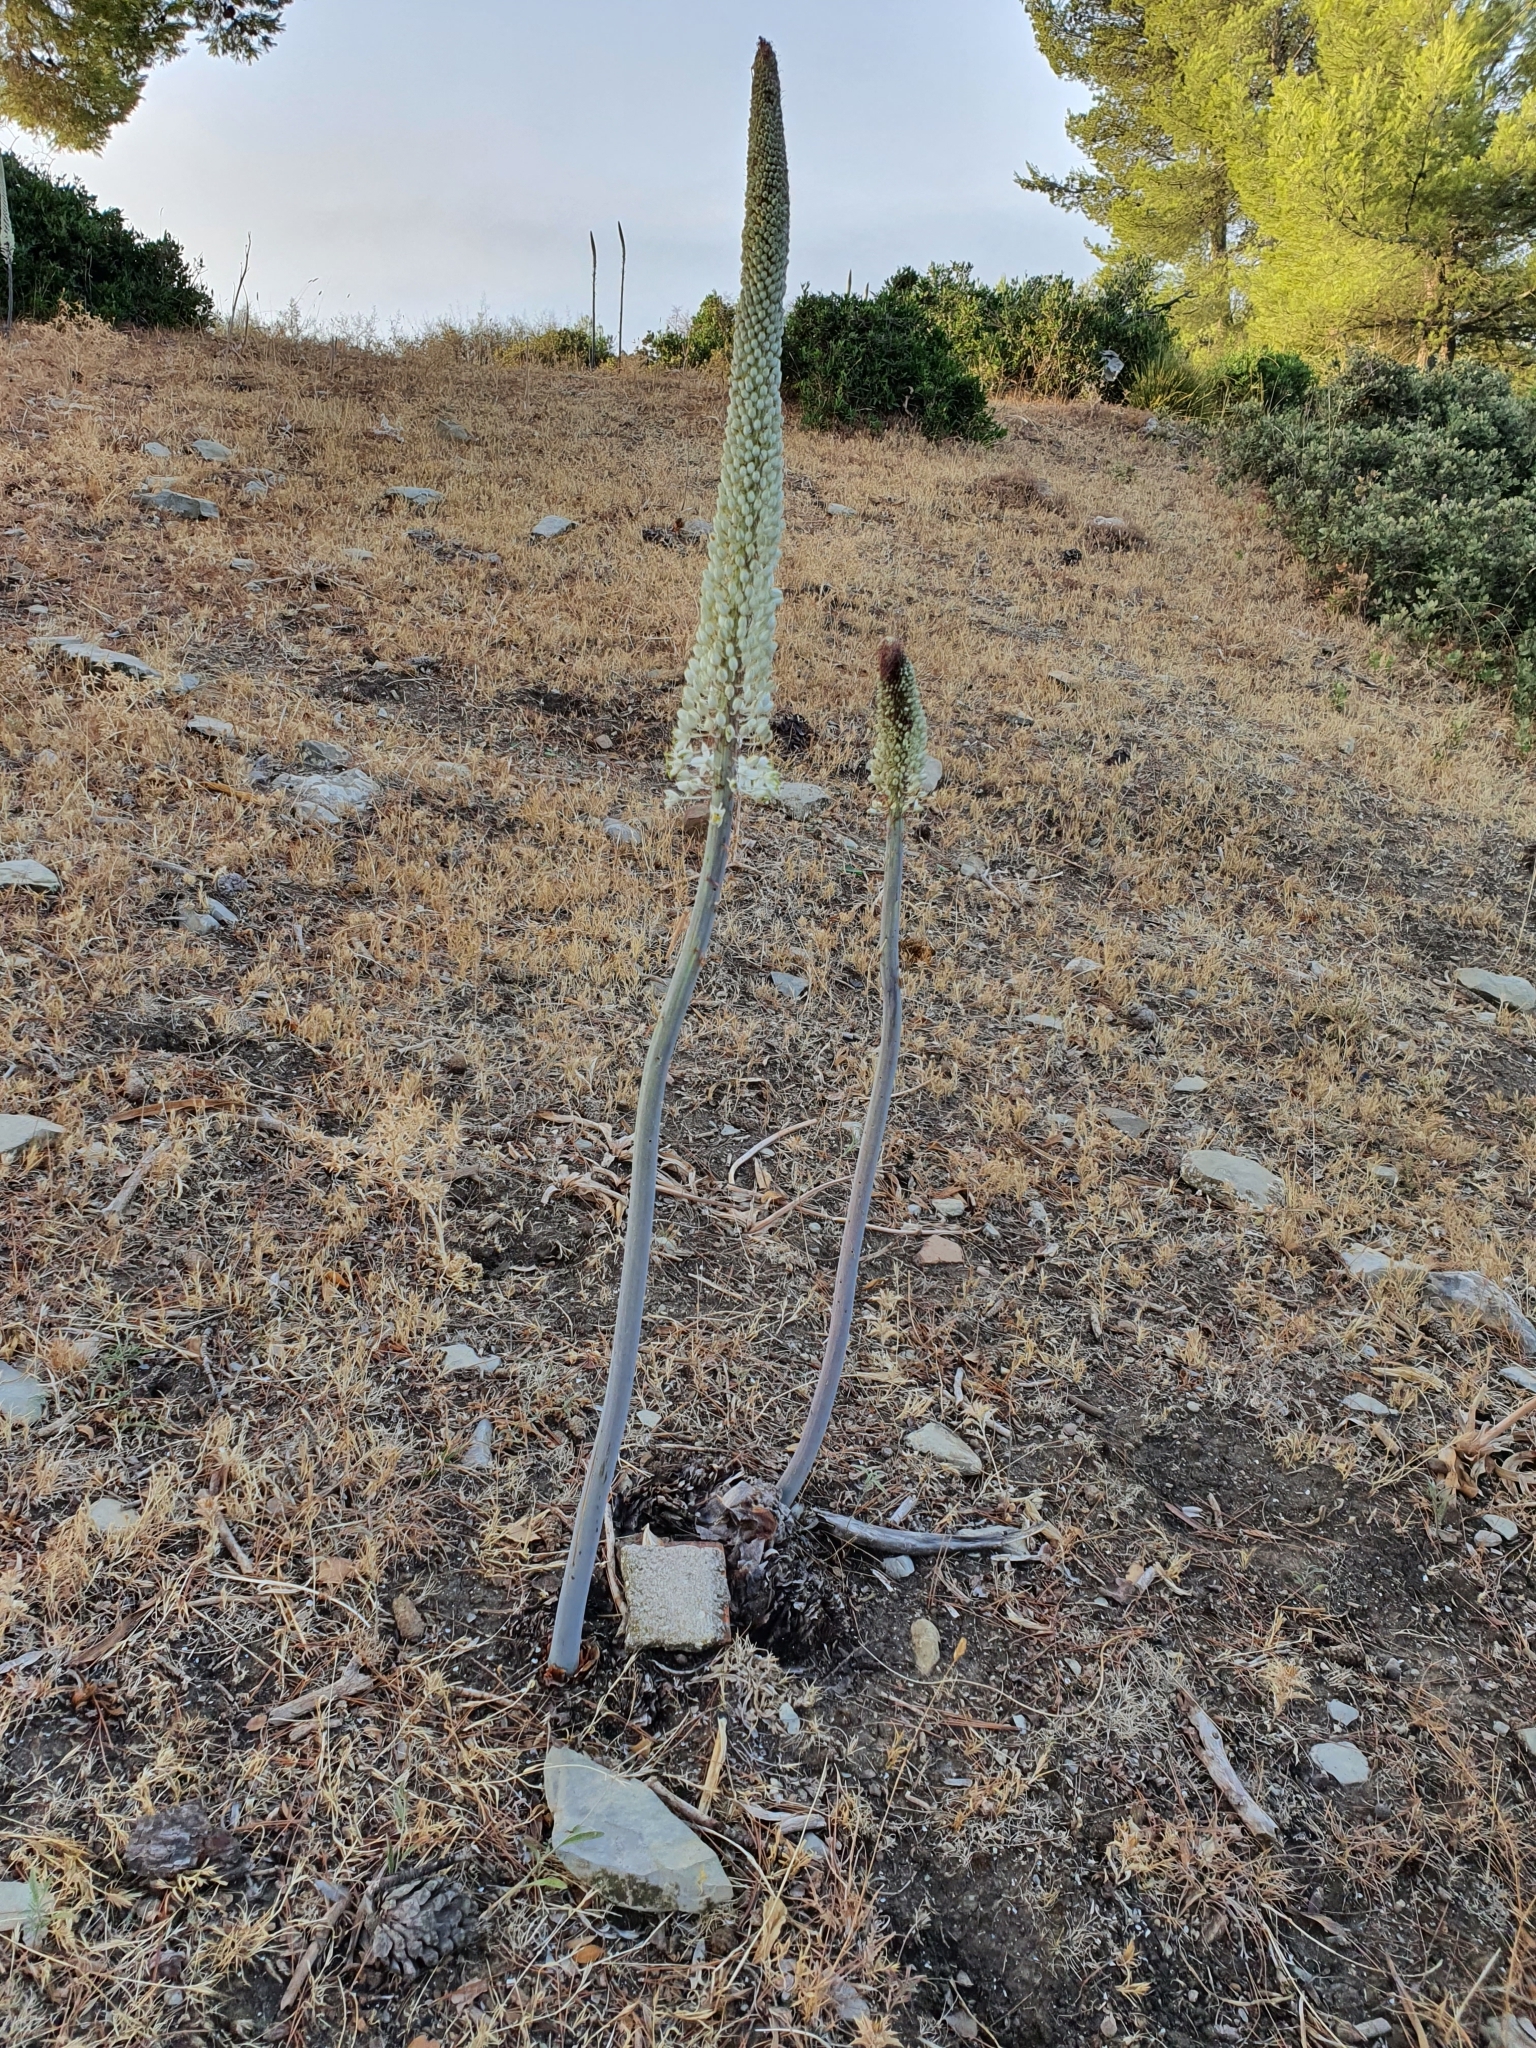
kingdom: Plantae
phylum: Tracheophyta
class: Liliopsida
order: Asparagales
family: Asparagaceae
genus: Drimia
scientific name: Drimia numidica
